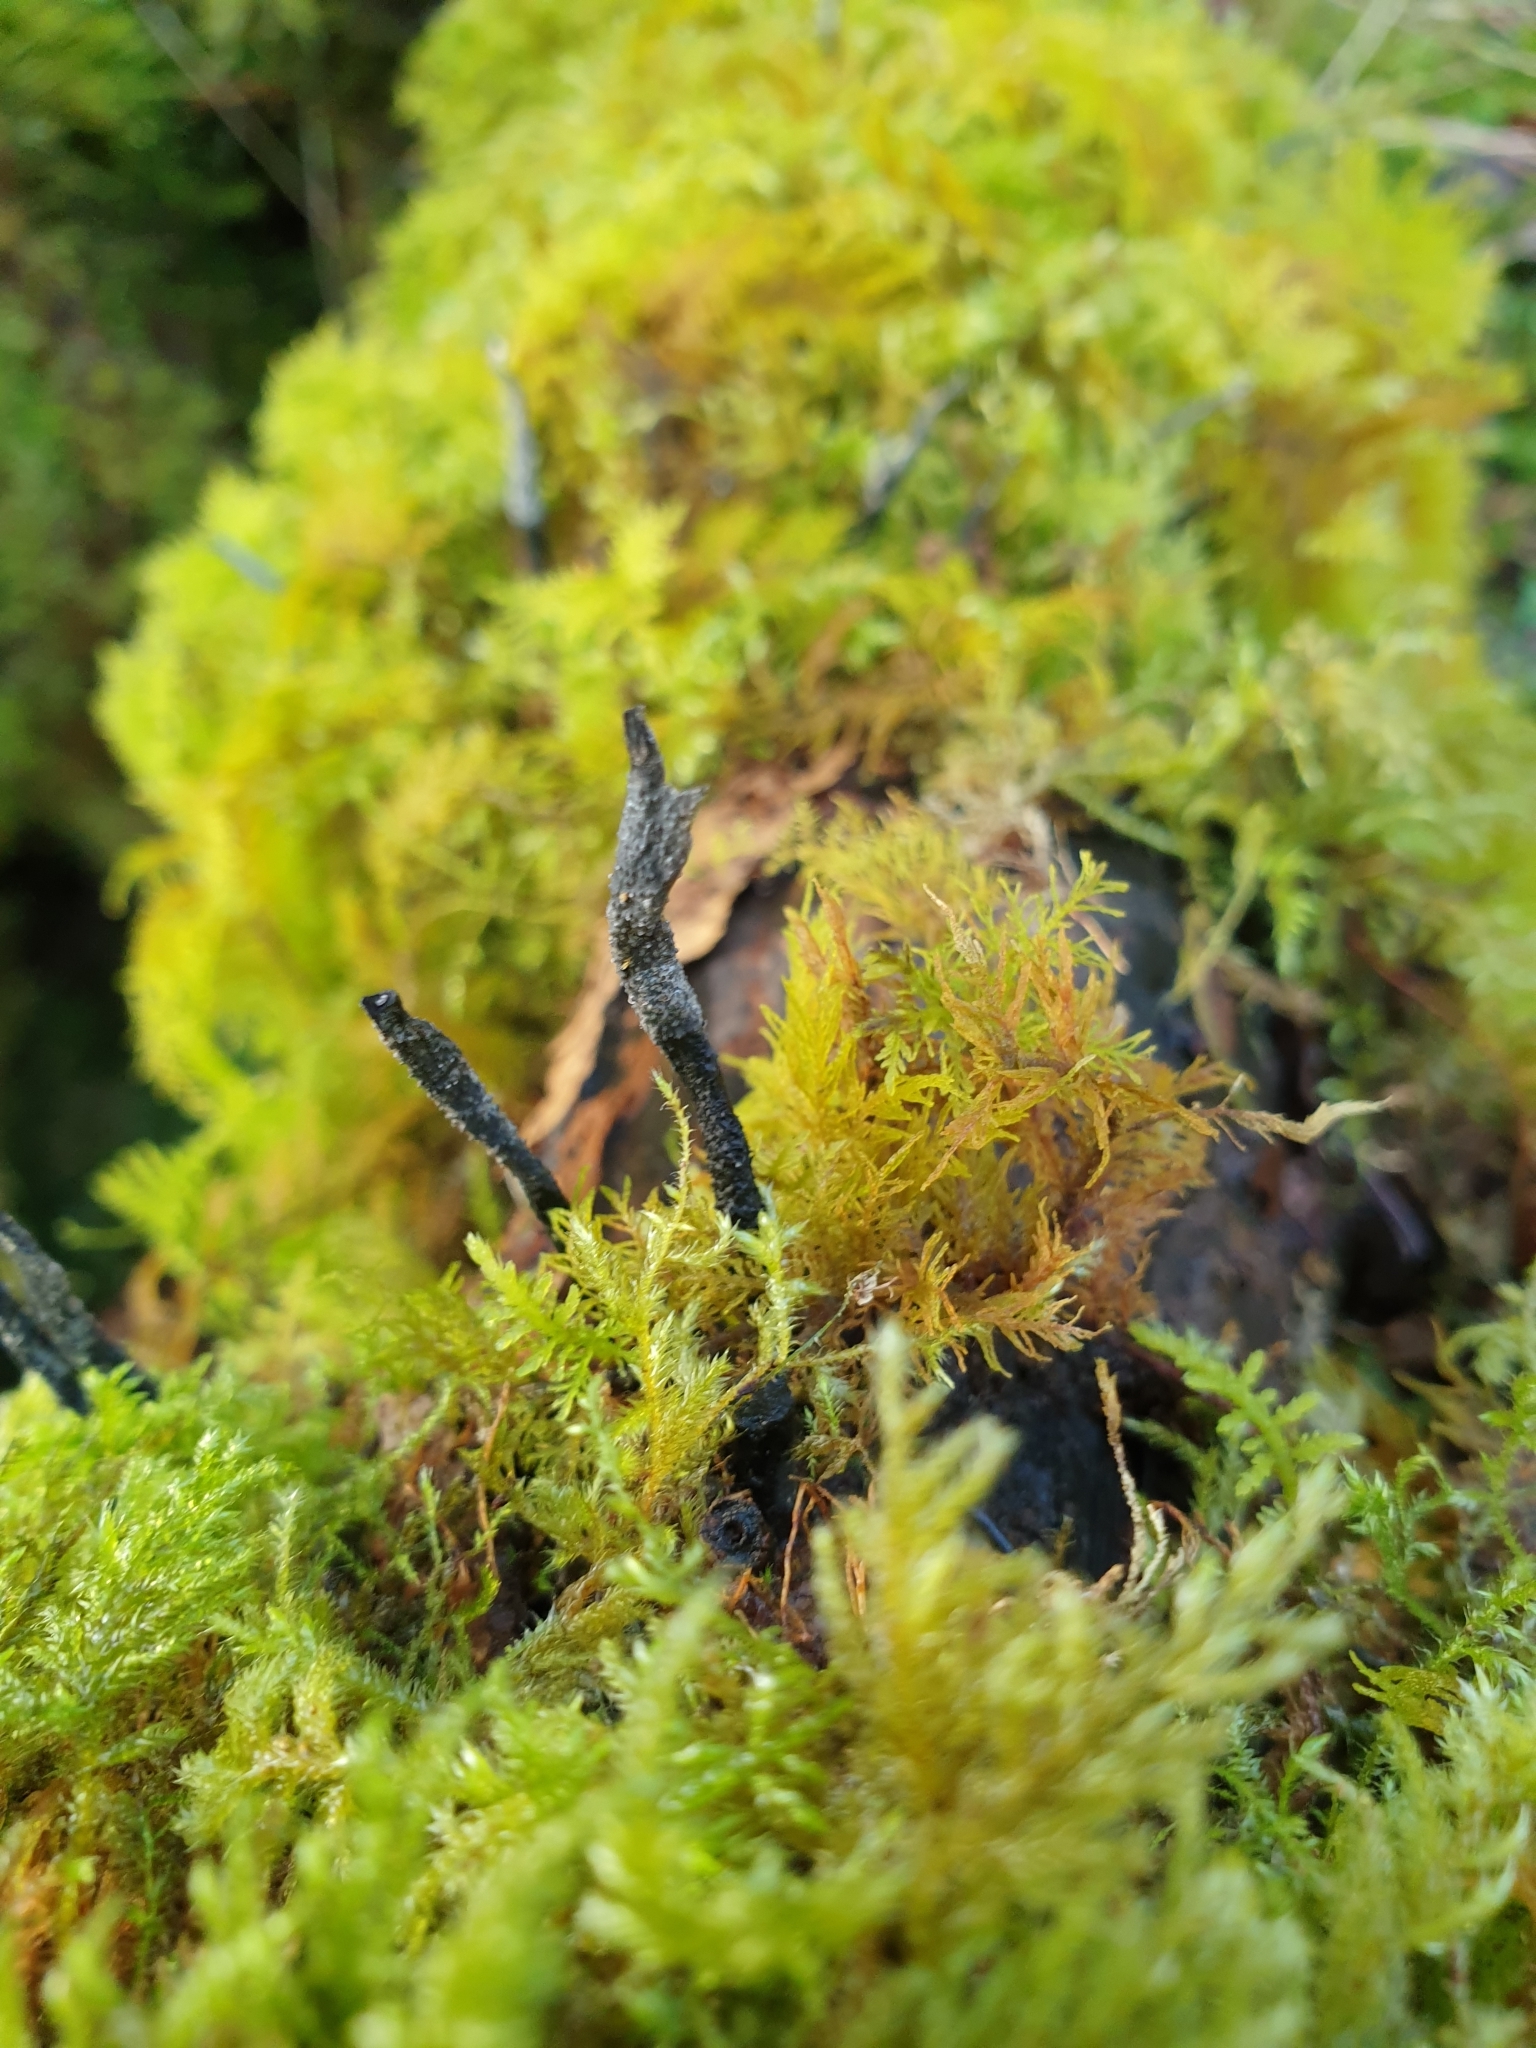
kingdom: Fungi
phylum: Ascomycota
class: Sordariomycetes
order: Xylariales
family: Xylariaceae
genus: Xylaria
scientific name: Xylaria hypoxylon
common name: Candle-snuff fungus
